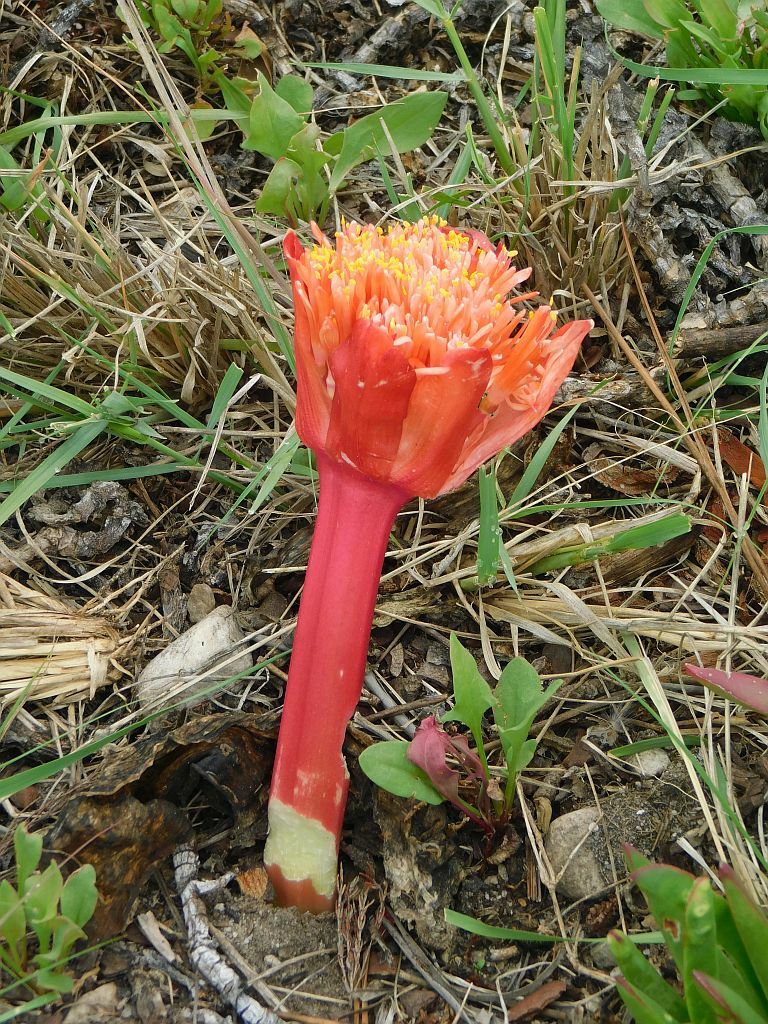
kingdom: Plantae
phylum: Tracheophyta
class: Liliopsida
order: Asparagales
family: Amaryllidaceae
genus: Haemanthus
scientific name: Haemanthus sanguineus
